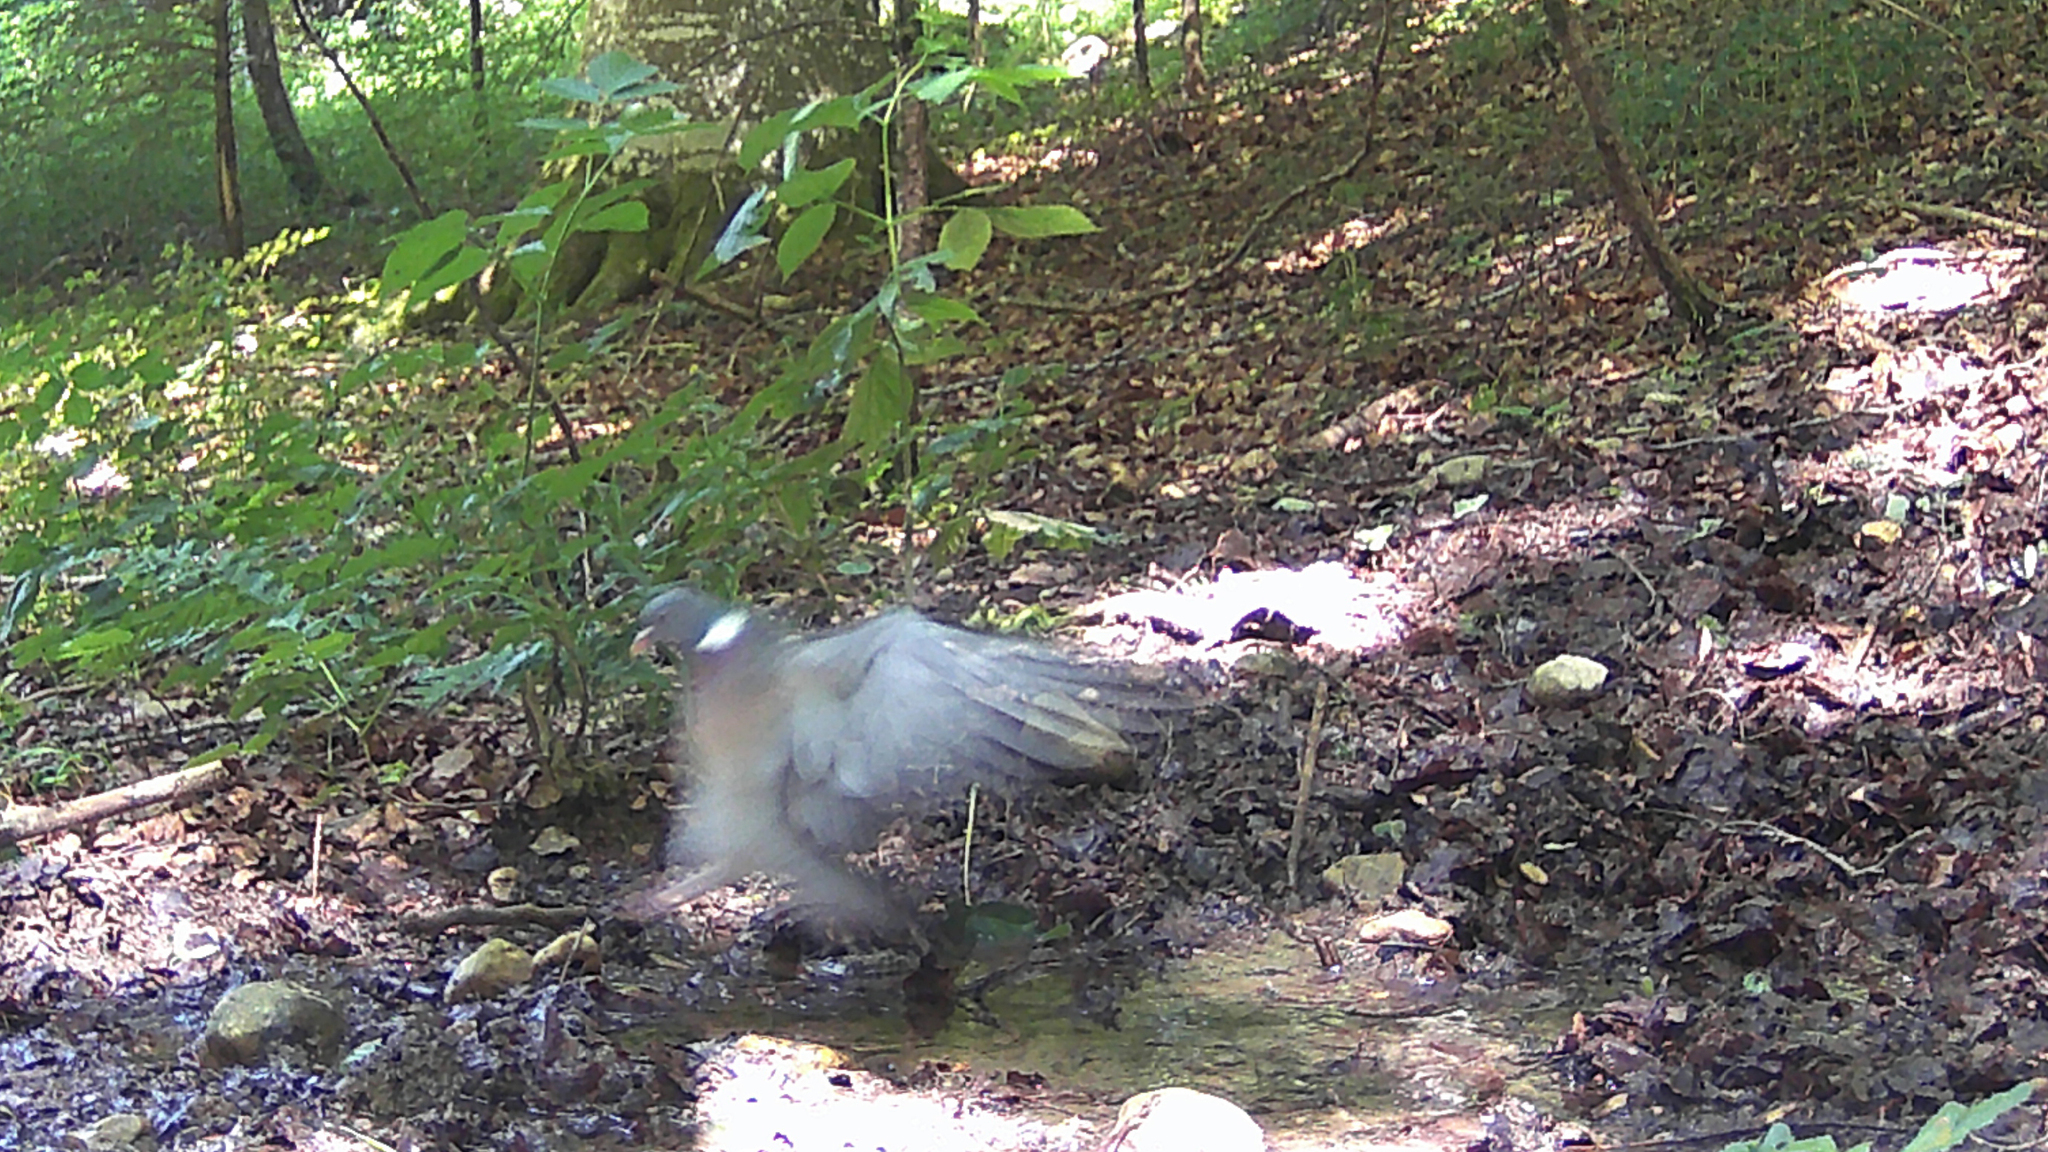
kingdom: Animalia
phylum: Chordata
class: Aves
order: Columbiformes
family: Columbidae
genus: Columba
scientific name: Columba palumbus
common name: Common wood pigeon
